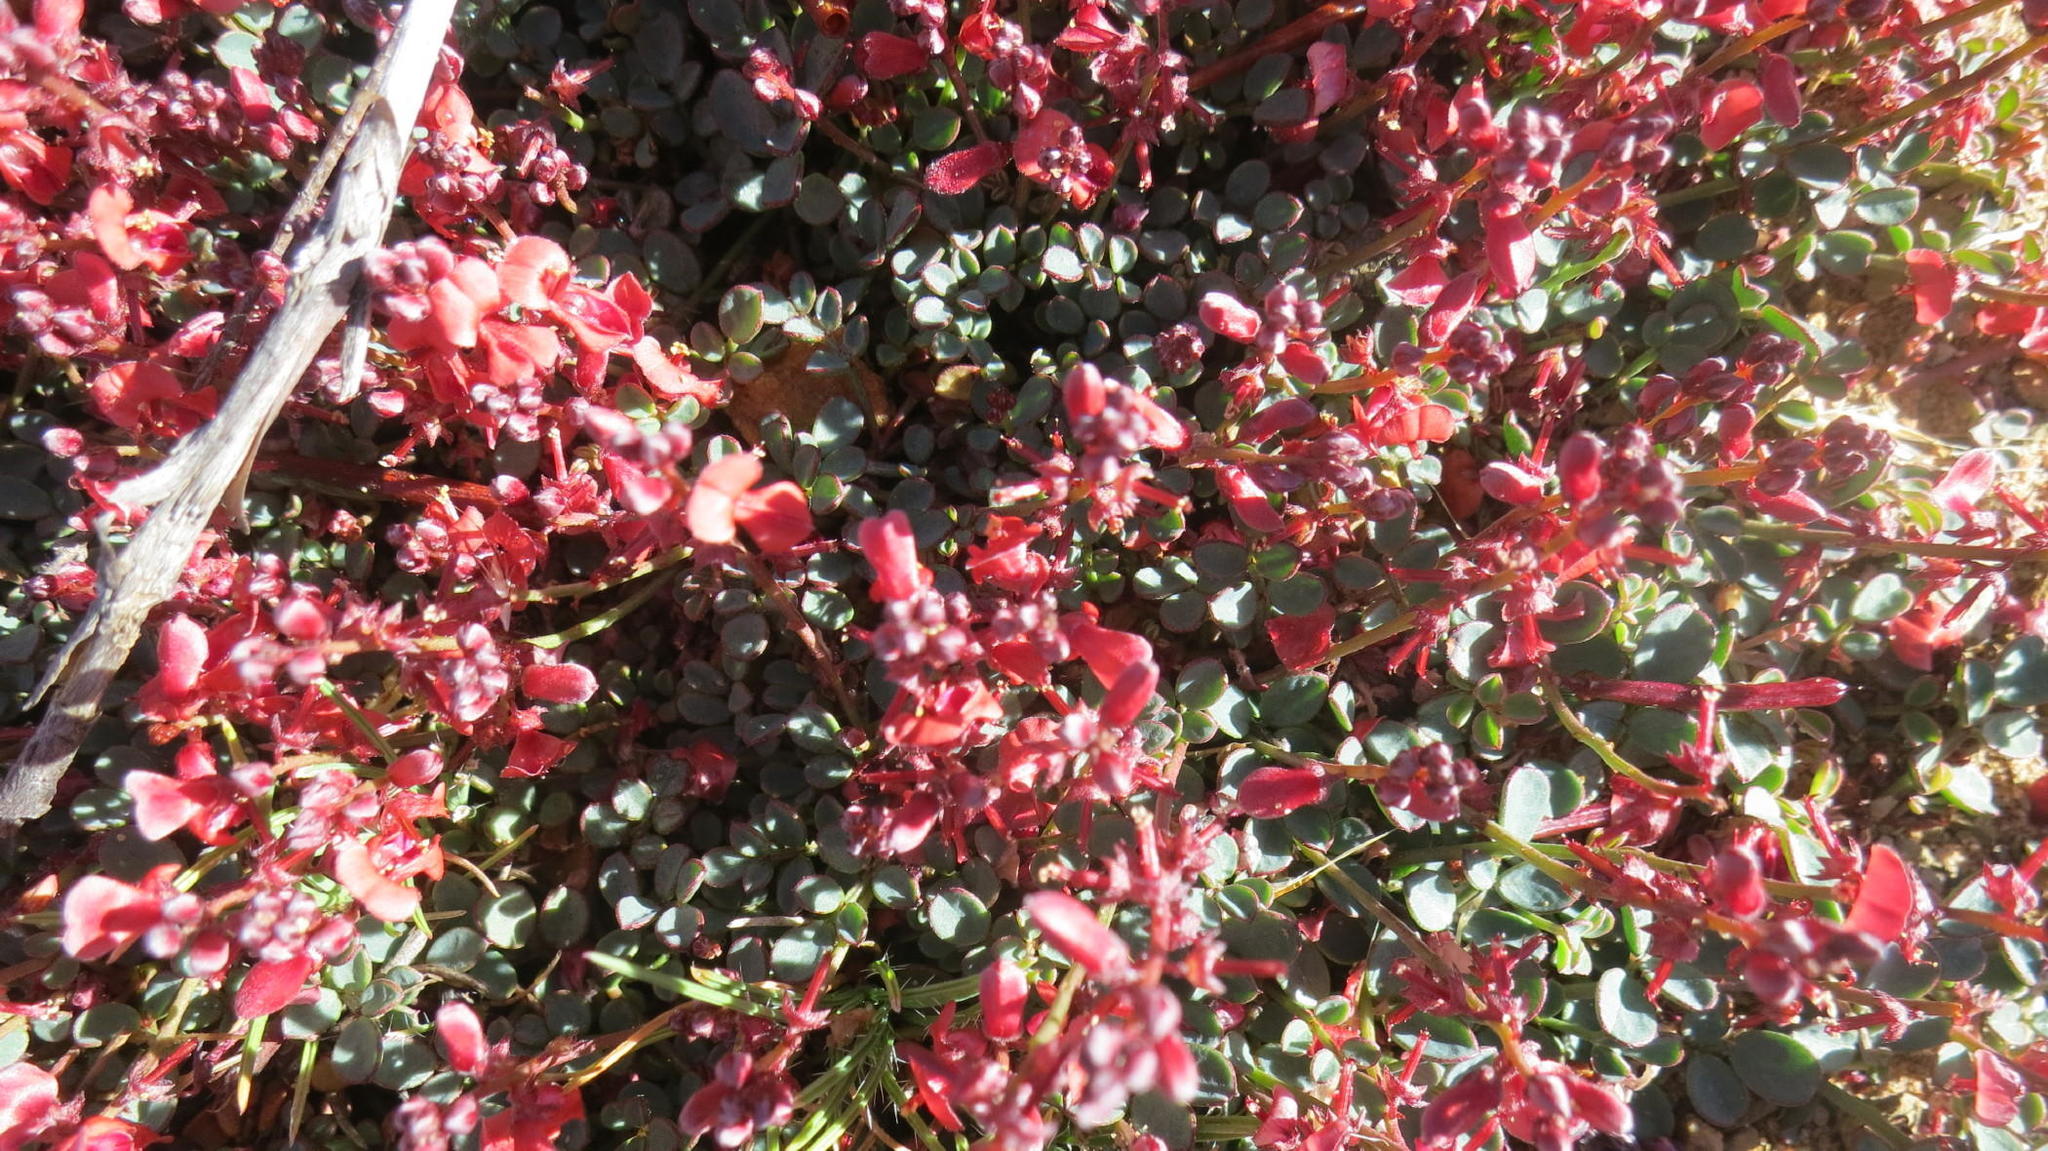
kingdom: Plantae
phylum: Tracheophyta
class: Magnoliopsida
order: Fabales
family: Fabaceae
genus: Indigofera
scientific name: Indigofera
